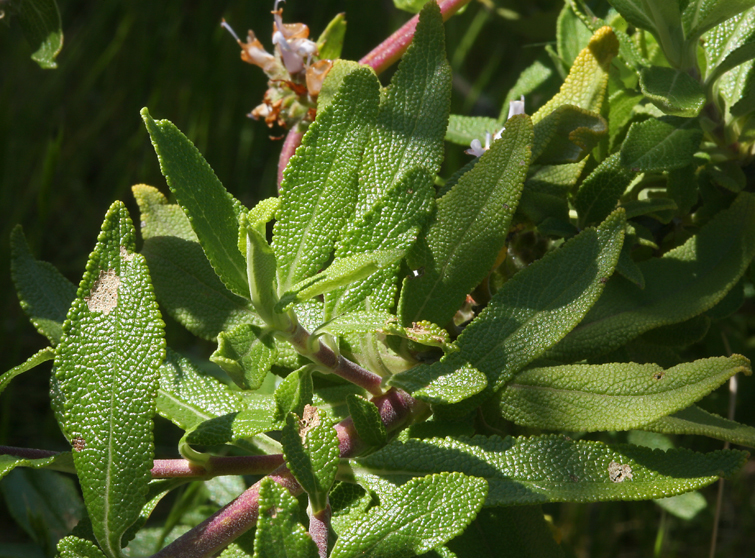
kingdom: Plantae
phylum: Tracheophyta
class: Magnoliopsida
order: Lamiales
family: Lamiaceae
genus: Salvia
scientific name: Salvia mellifera
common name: Black sage
